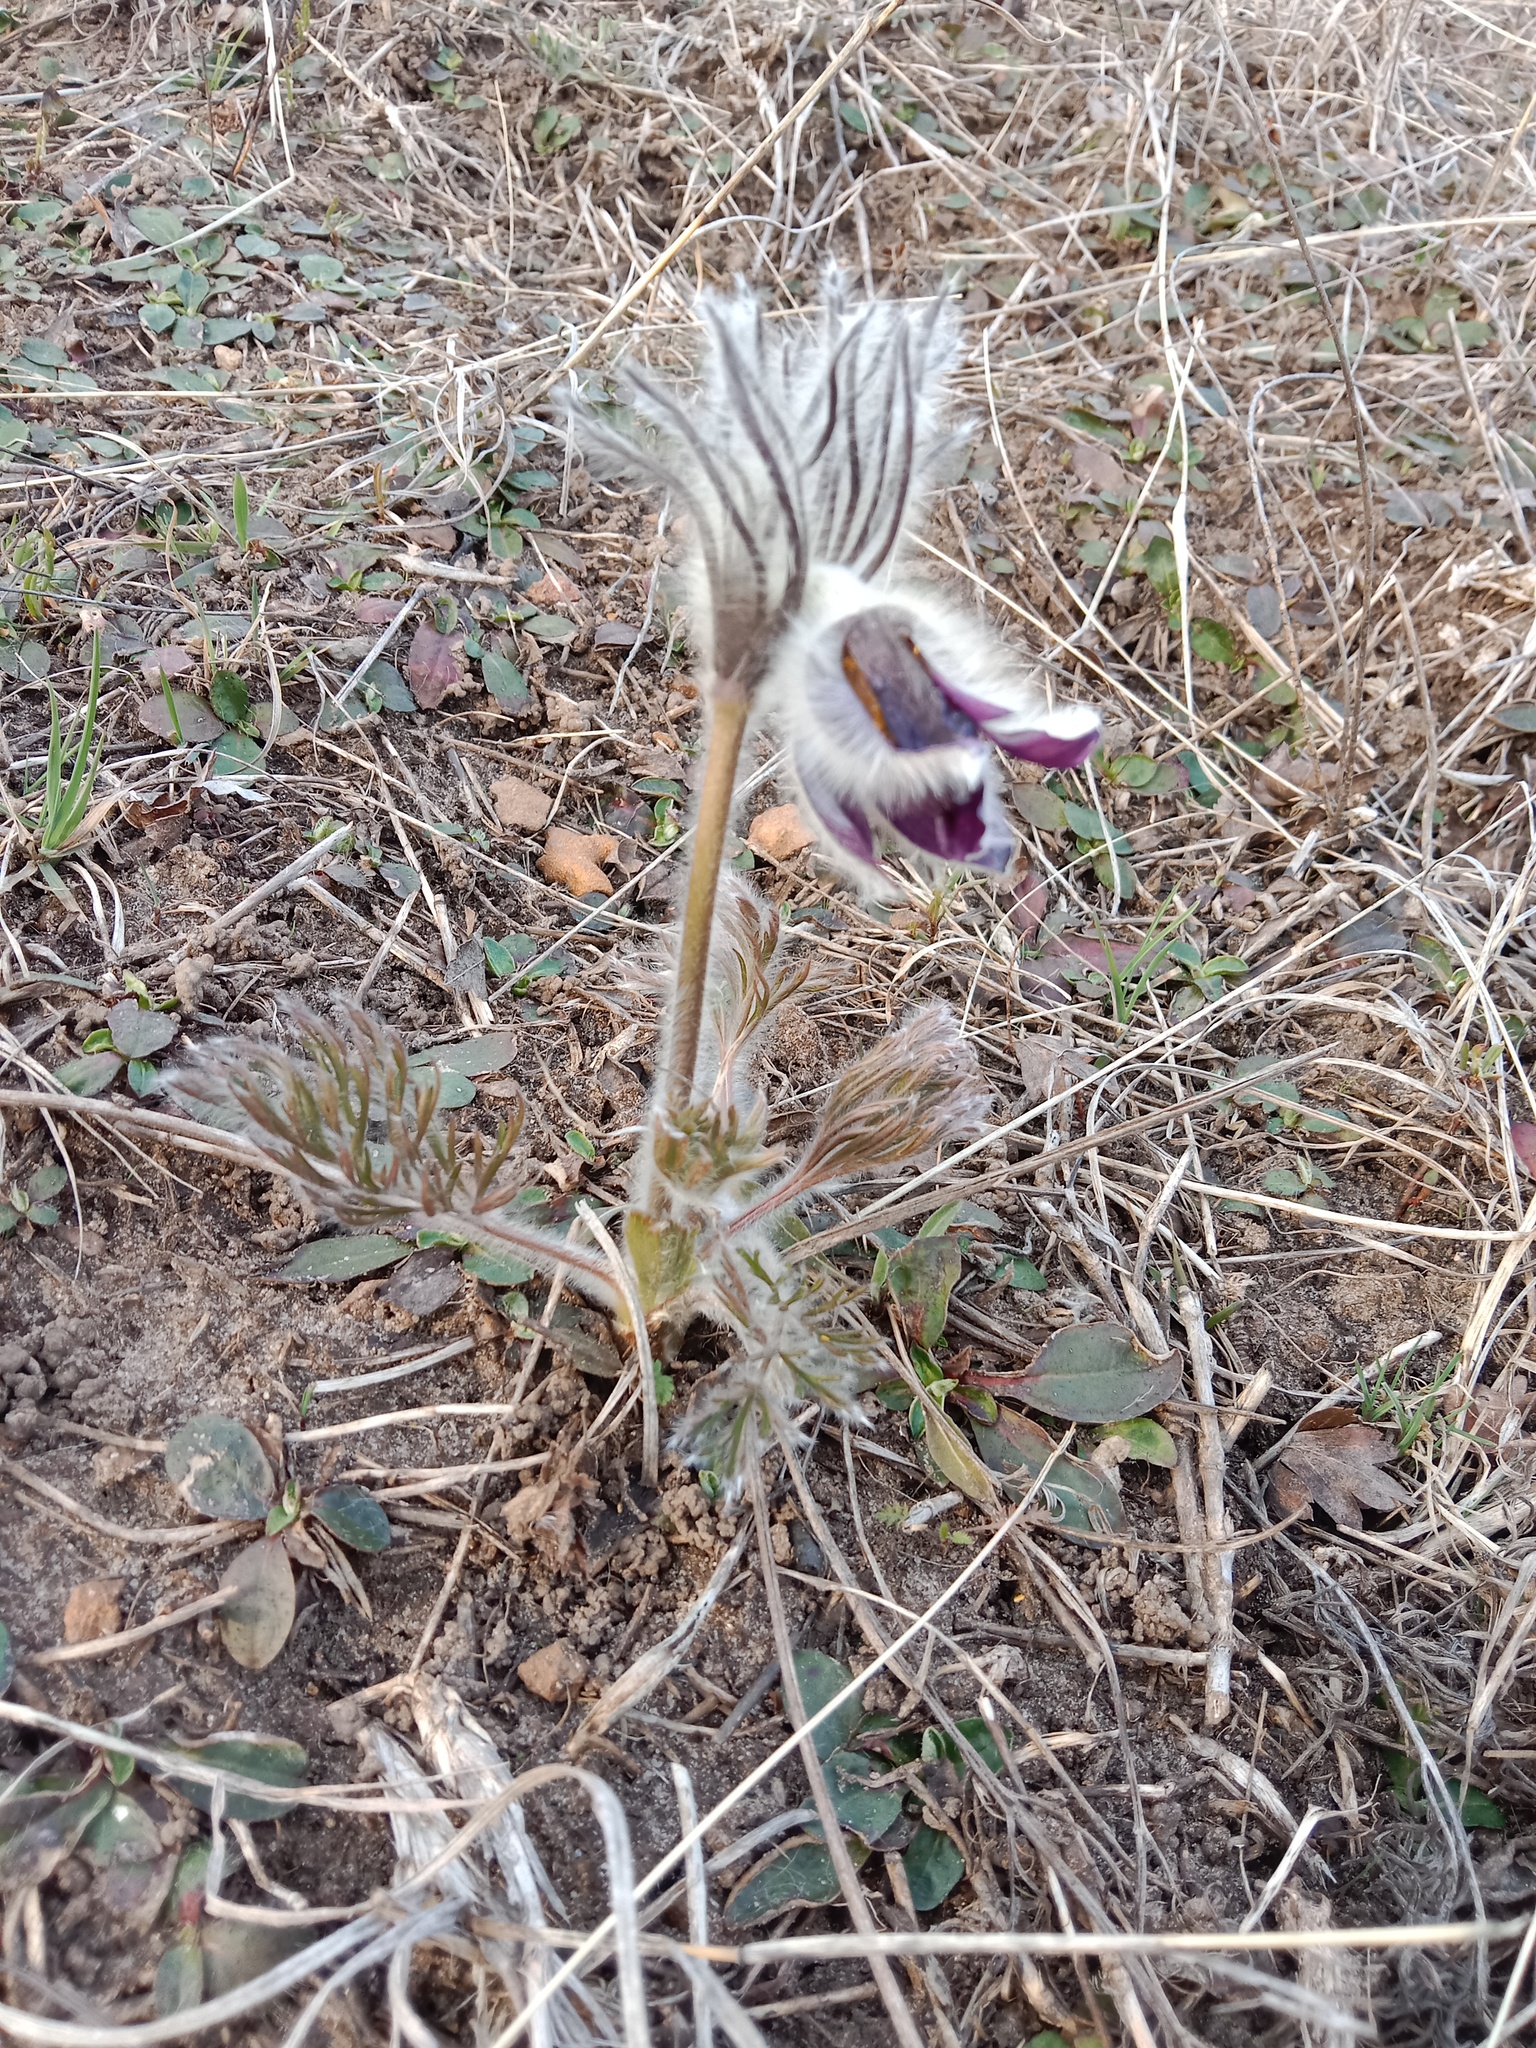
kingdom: Plantae
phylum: Tracheophyta
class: Magnoliopsida
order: Ranunculales
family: Ranunculaceae
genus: Pulsatilla
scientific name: Pulsatilla pratensis
